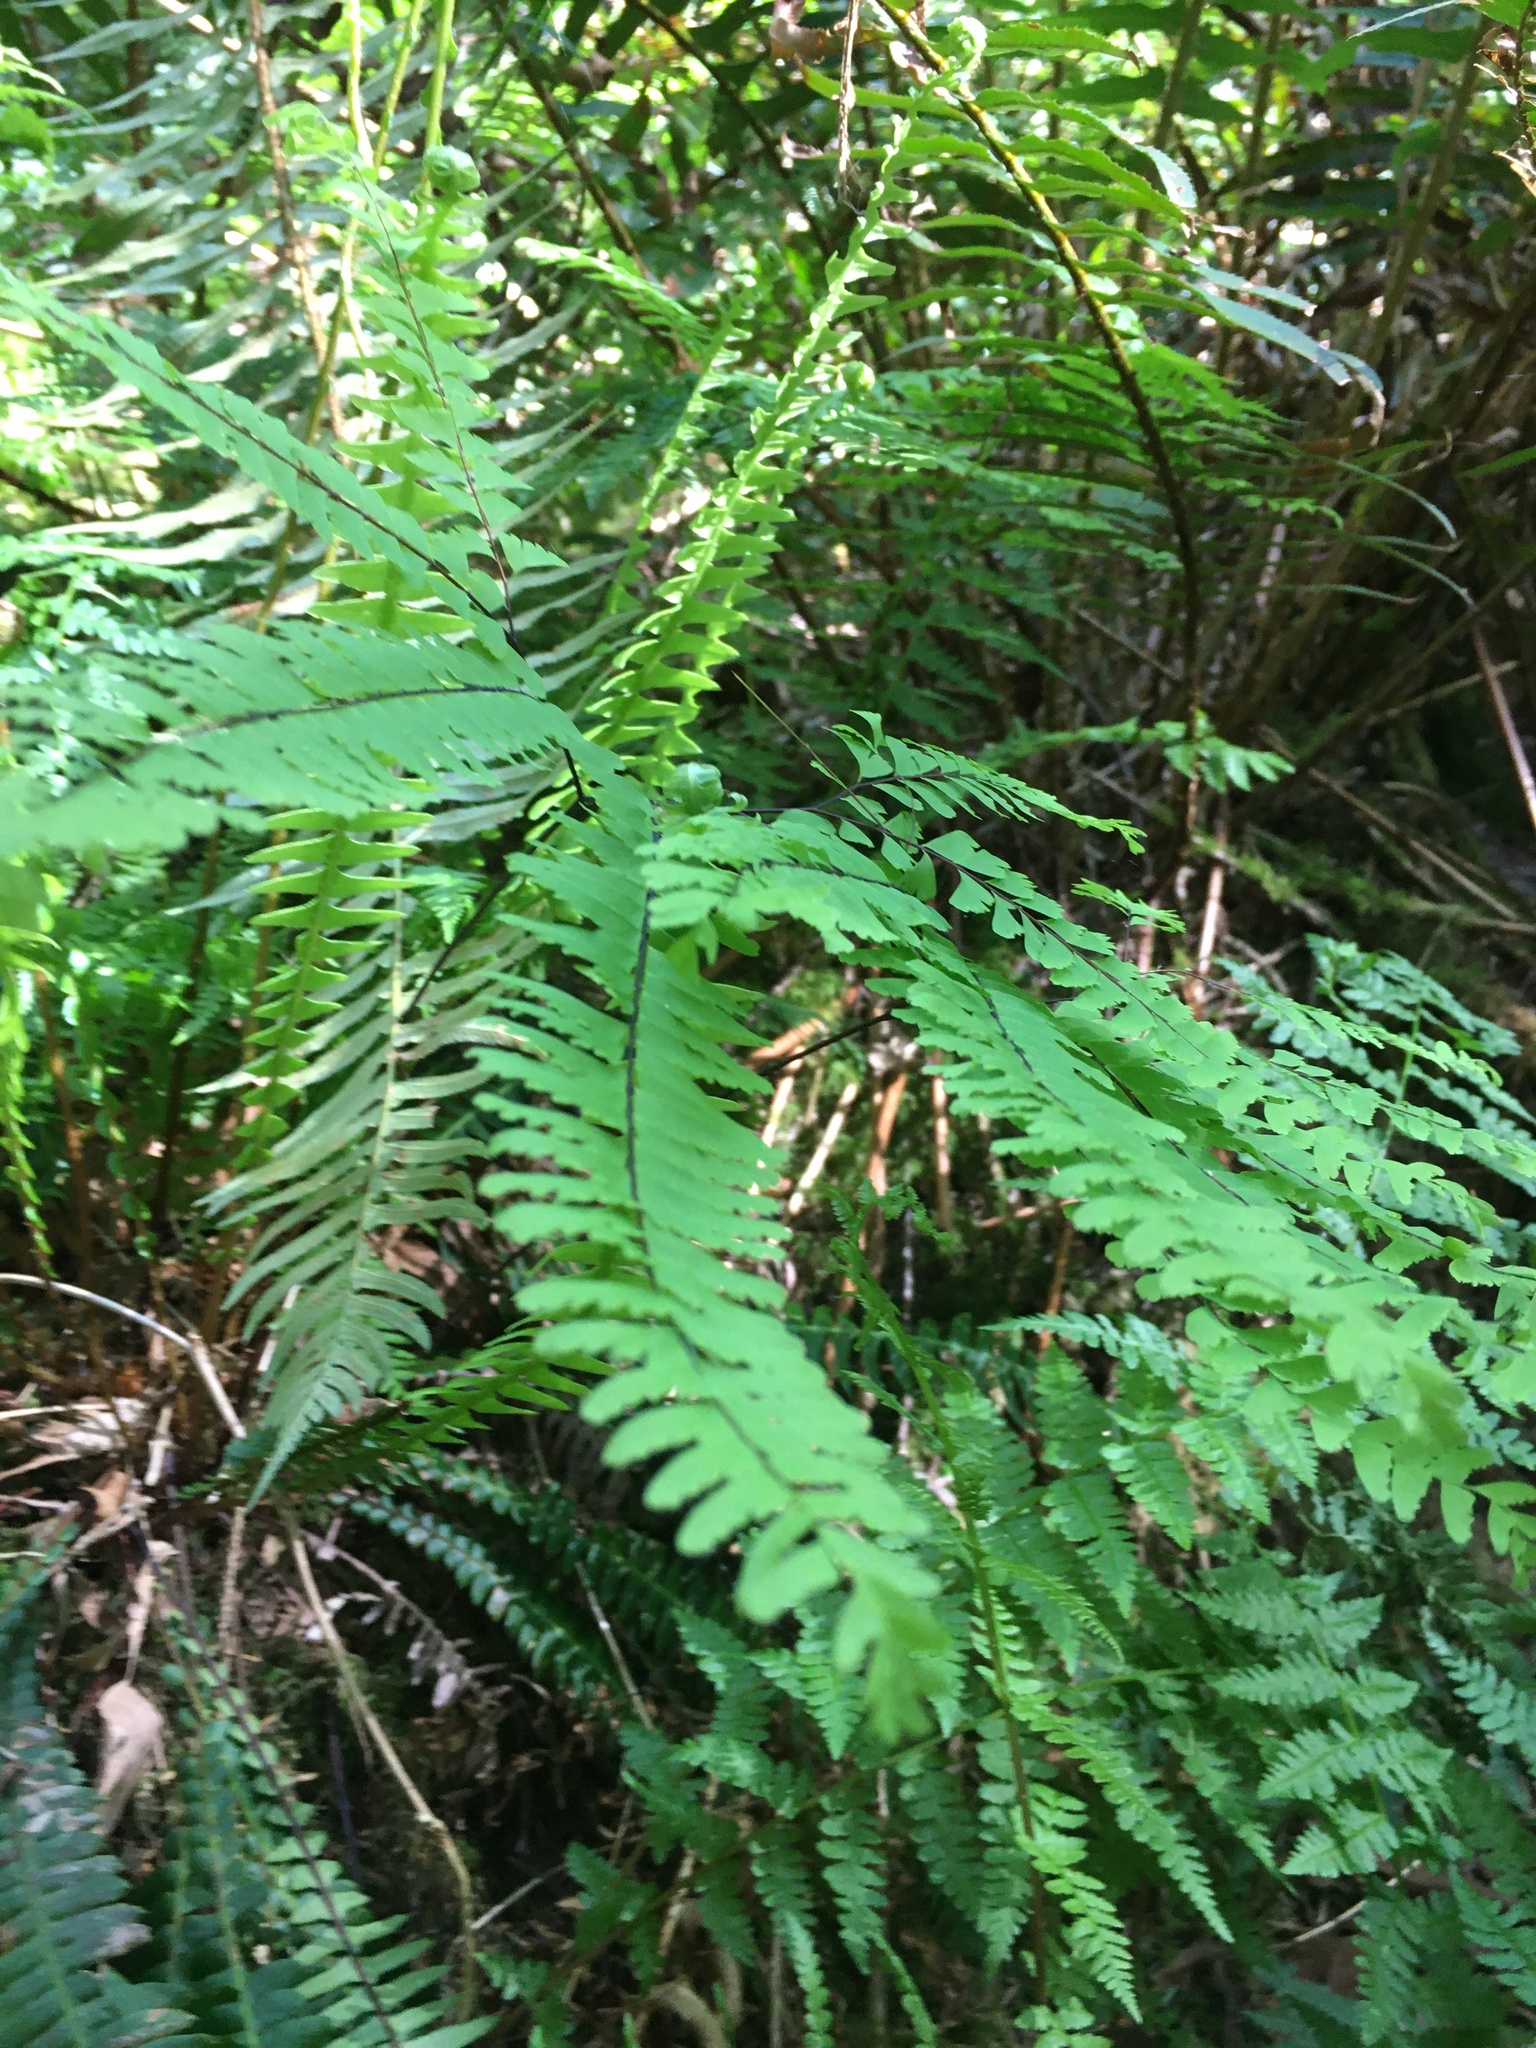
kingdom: Plantae
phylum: Tracheophyta
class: Polypodiopsida
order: Polypodiales
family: Pteridaceae
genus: Adiantum
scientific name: Adiantum aleuticum
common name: Aleutian maidenhair fern
